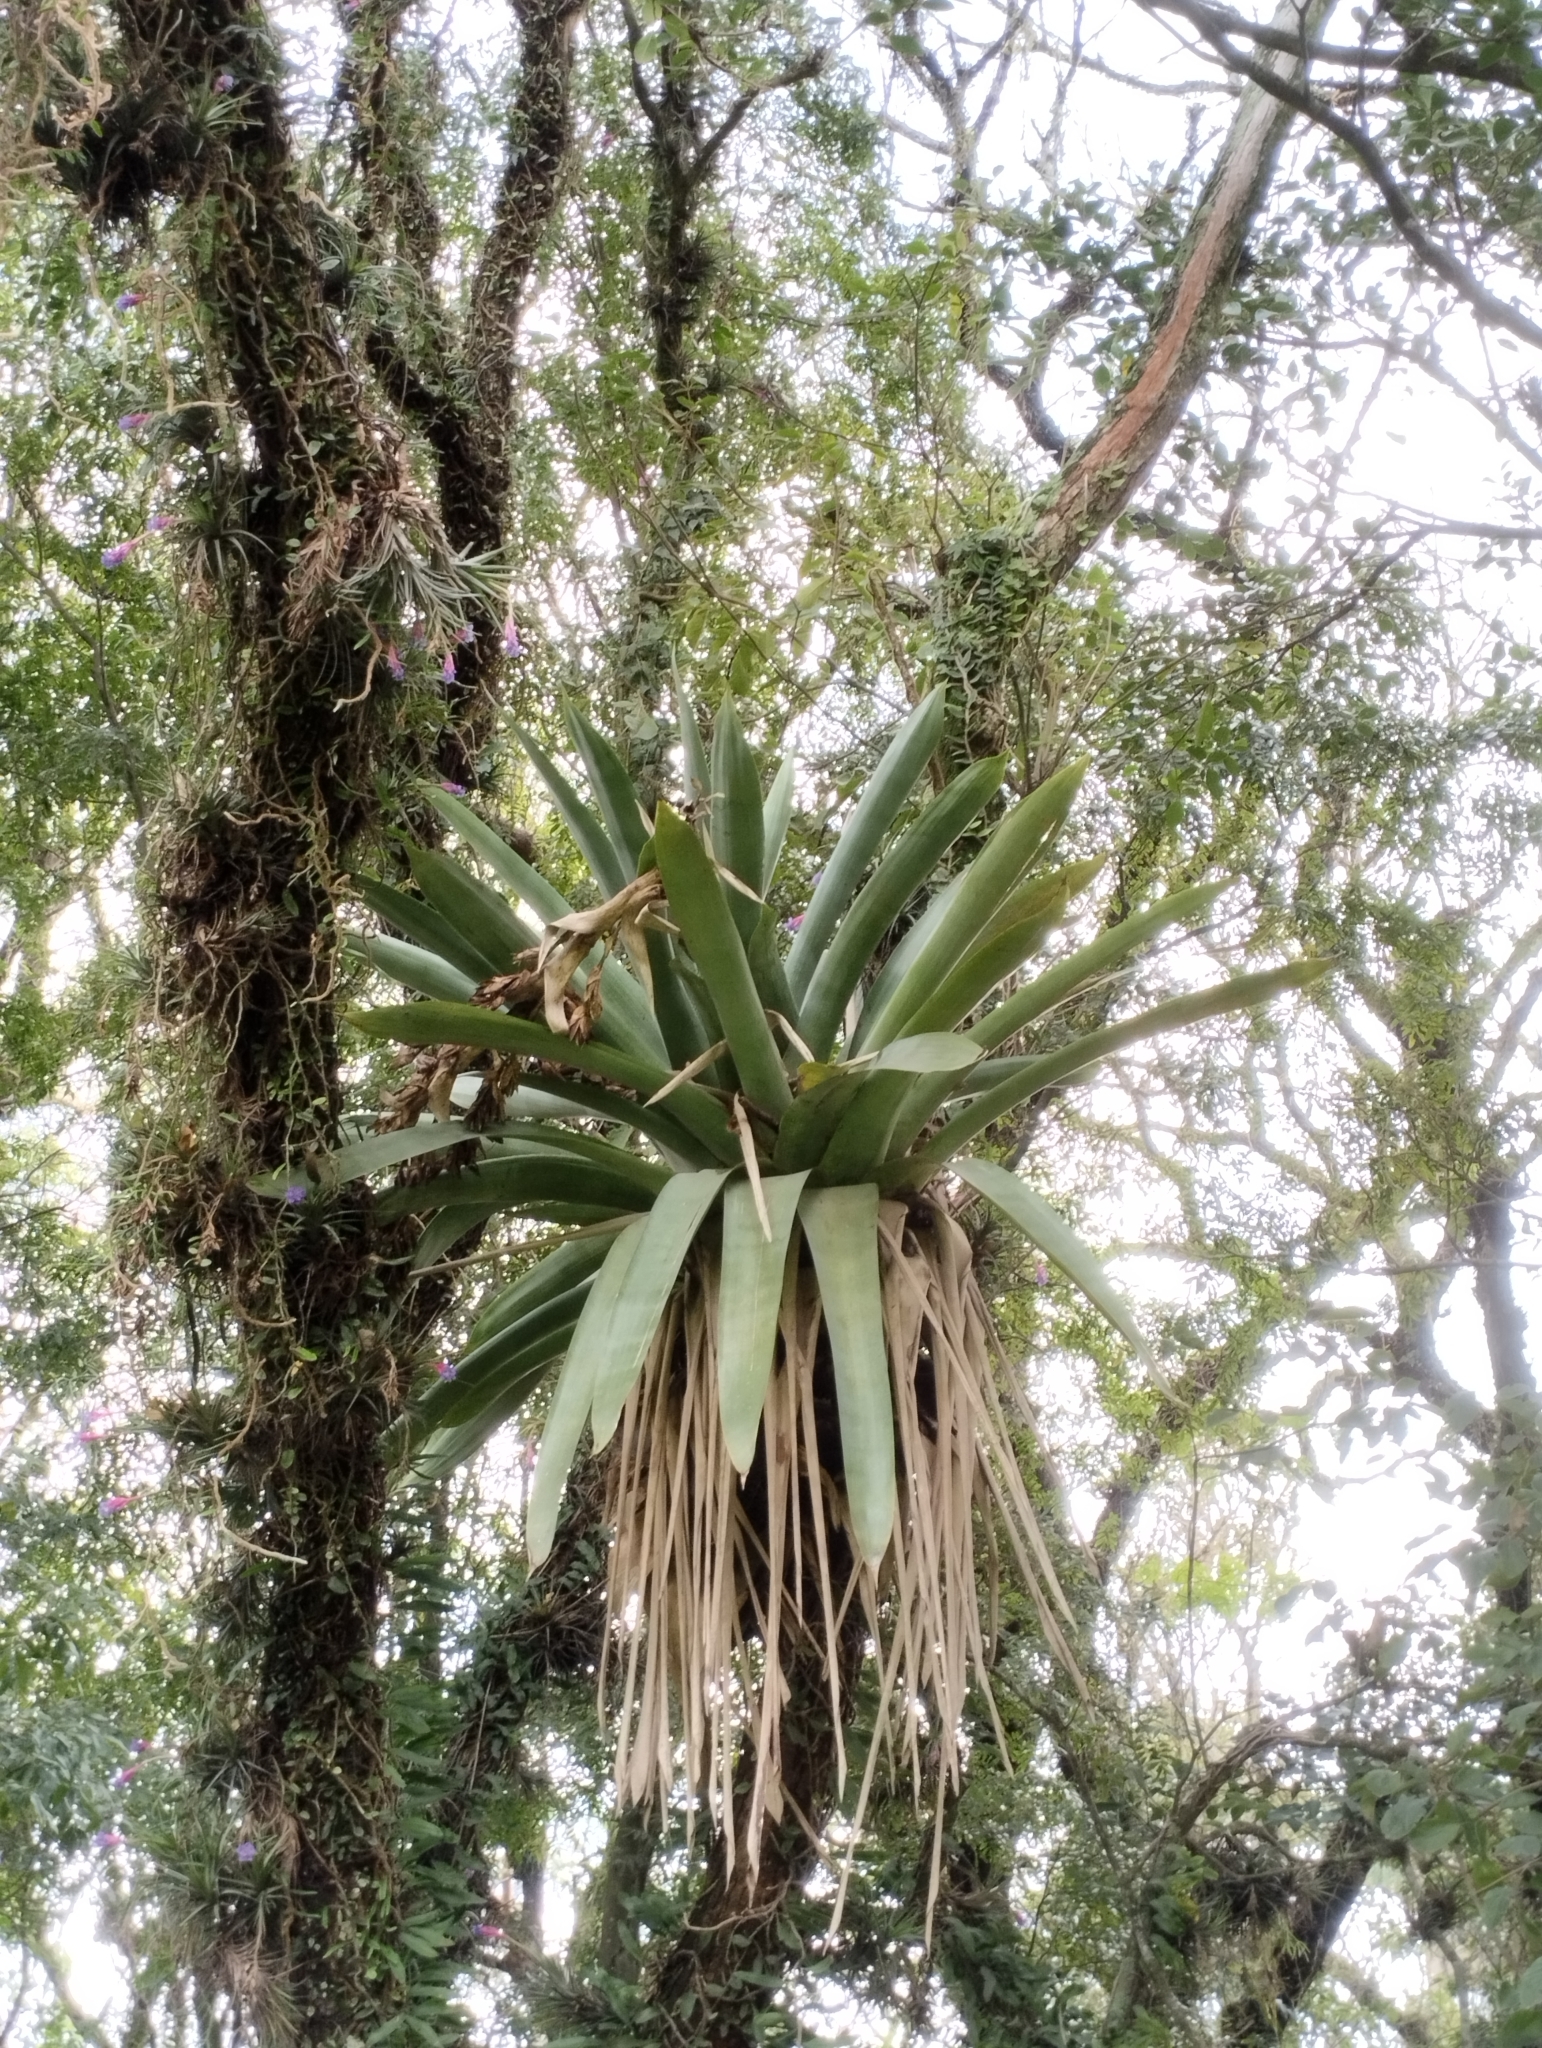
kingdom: Plantae
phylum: Tracheophyta
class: Liliopsida
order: Poales
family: Bromeliaceae
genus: Vriesea
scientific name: Vriesea gigantea
